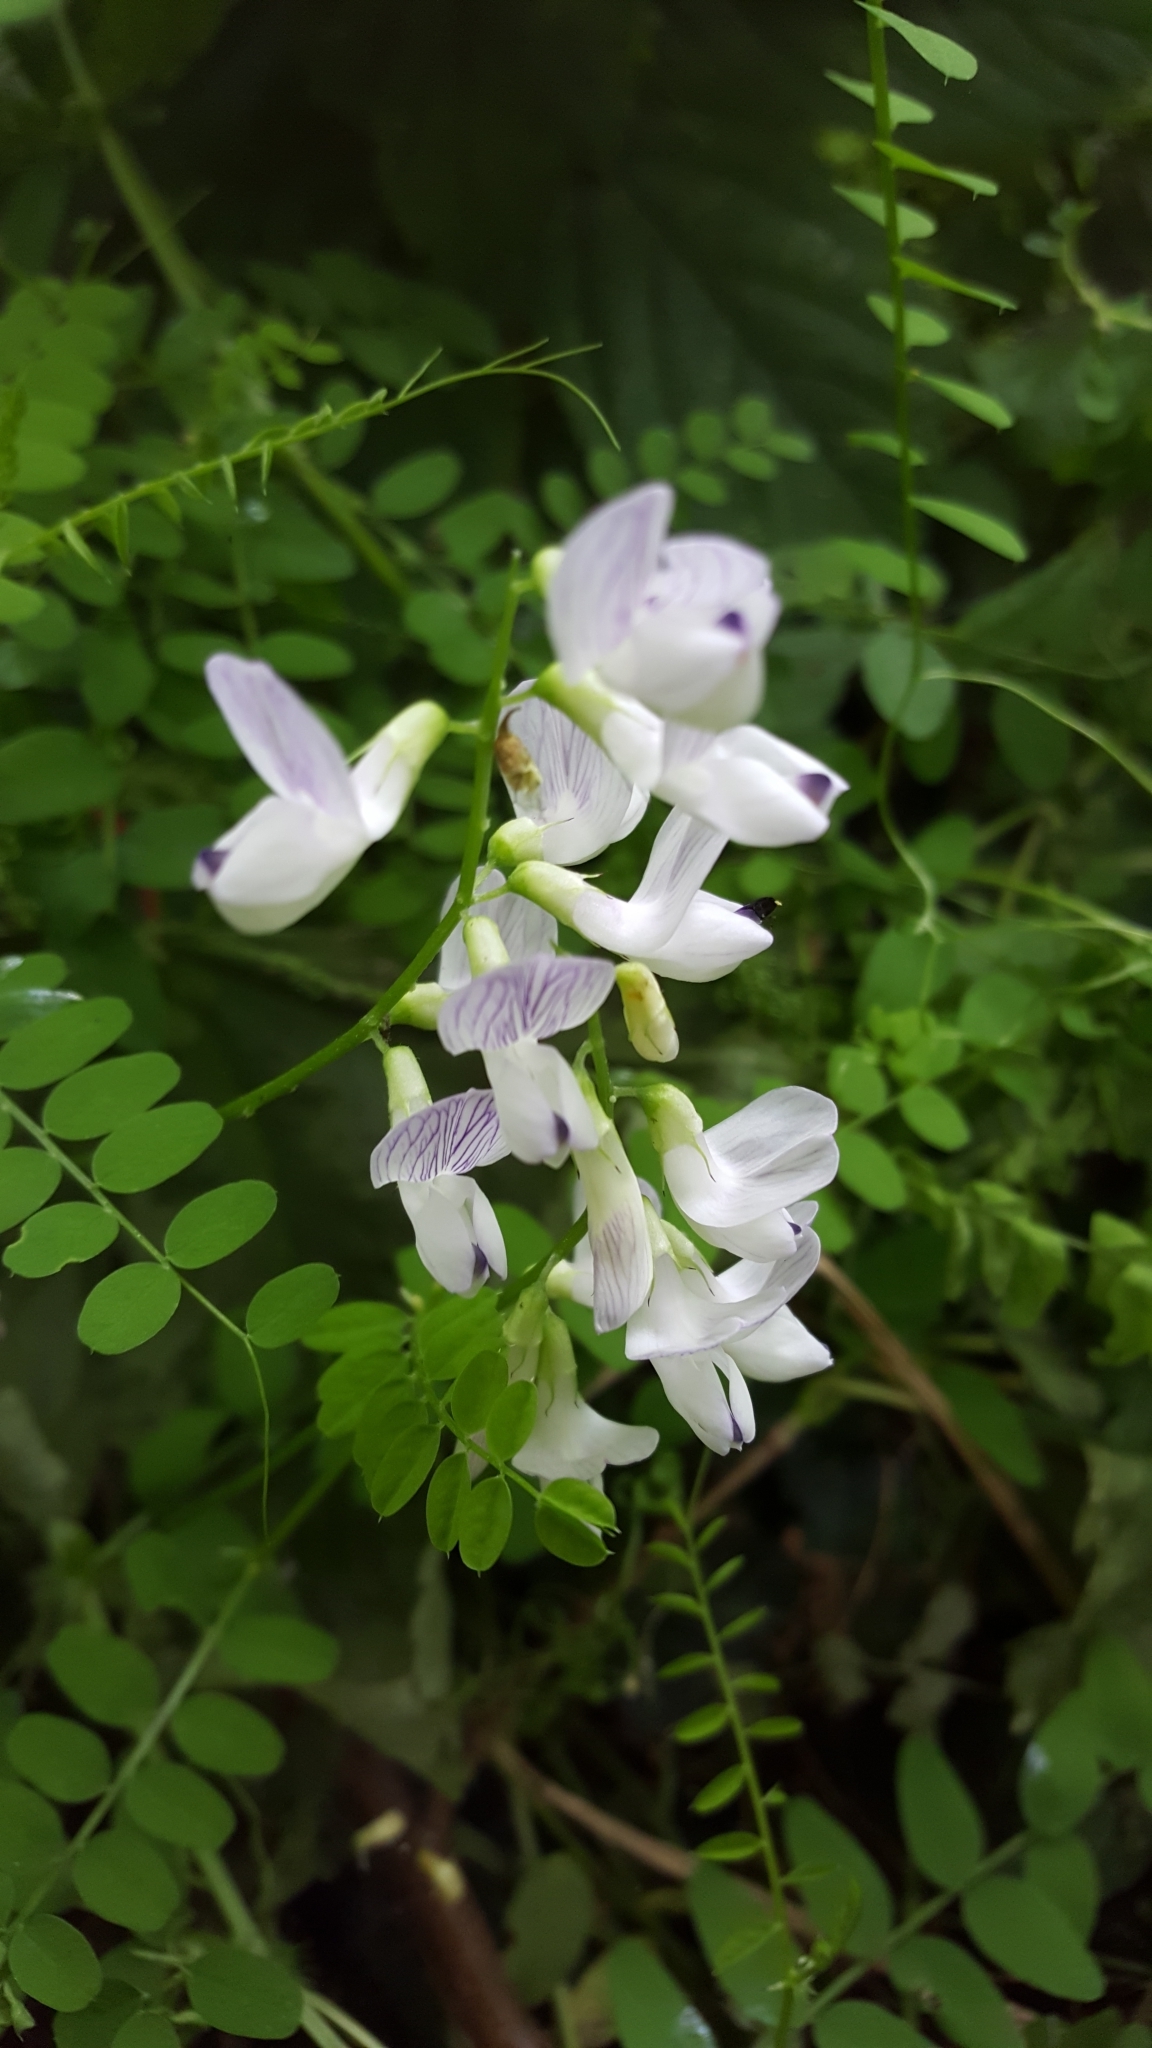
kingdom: Plantae
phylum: Tracheophyta
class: Magnoliopsida
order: Fabales
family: Fabaceae
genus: Vicia
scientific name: Vicia sylvatica
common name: Wood vetch
